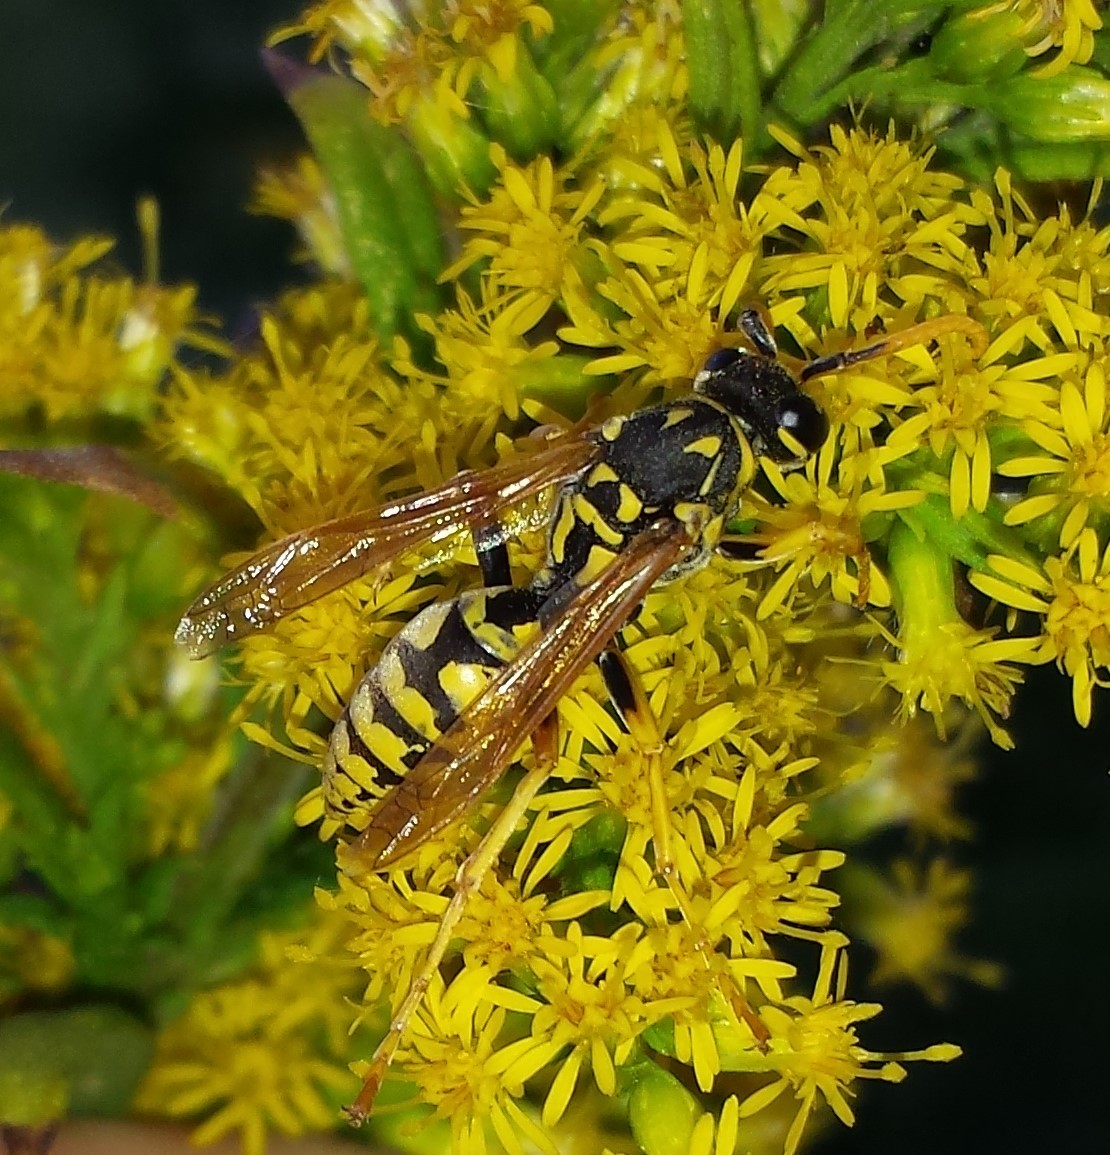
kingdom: Animalia
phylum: Arthropoda
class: Insecta
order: Hymenoptera
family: Eumenidae
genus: Polistes
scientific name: Polistes dominula
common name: Paper wasp
